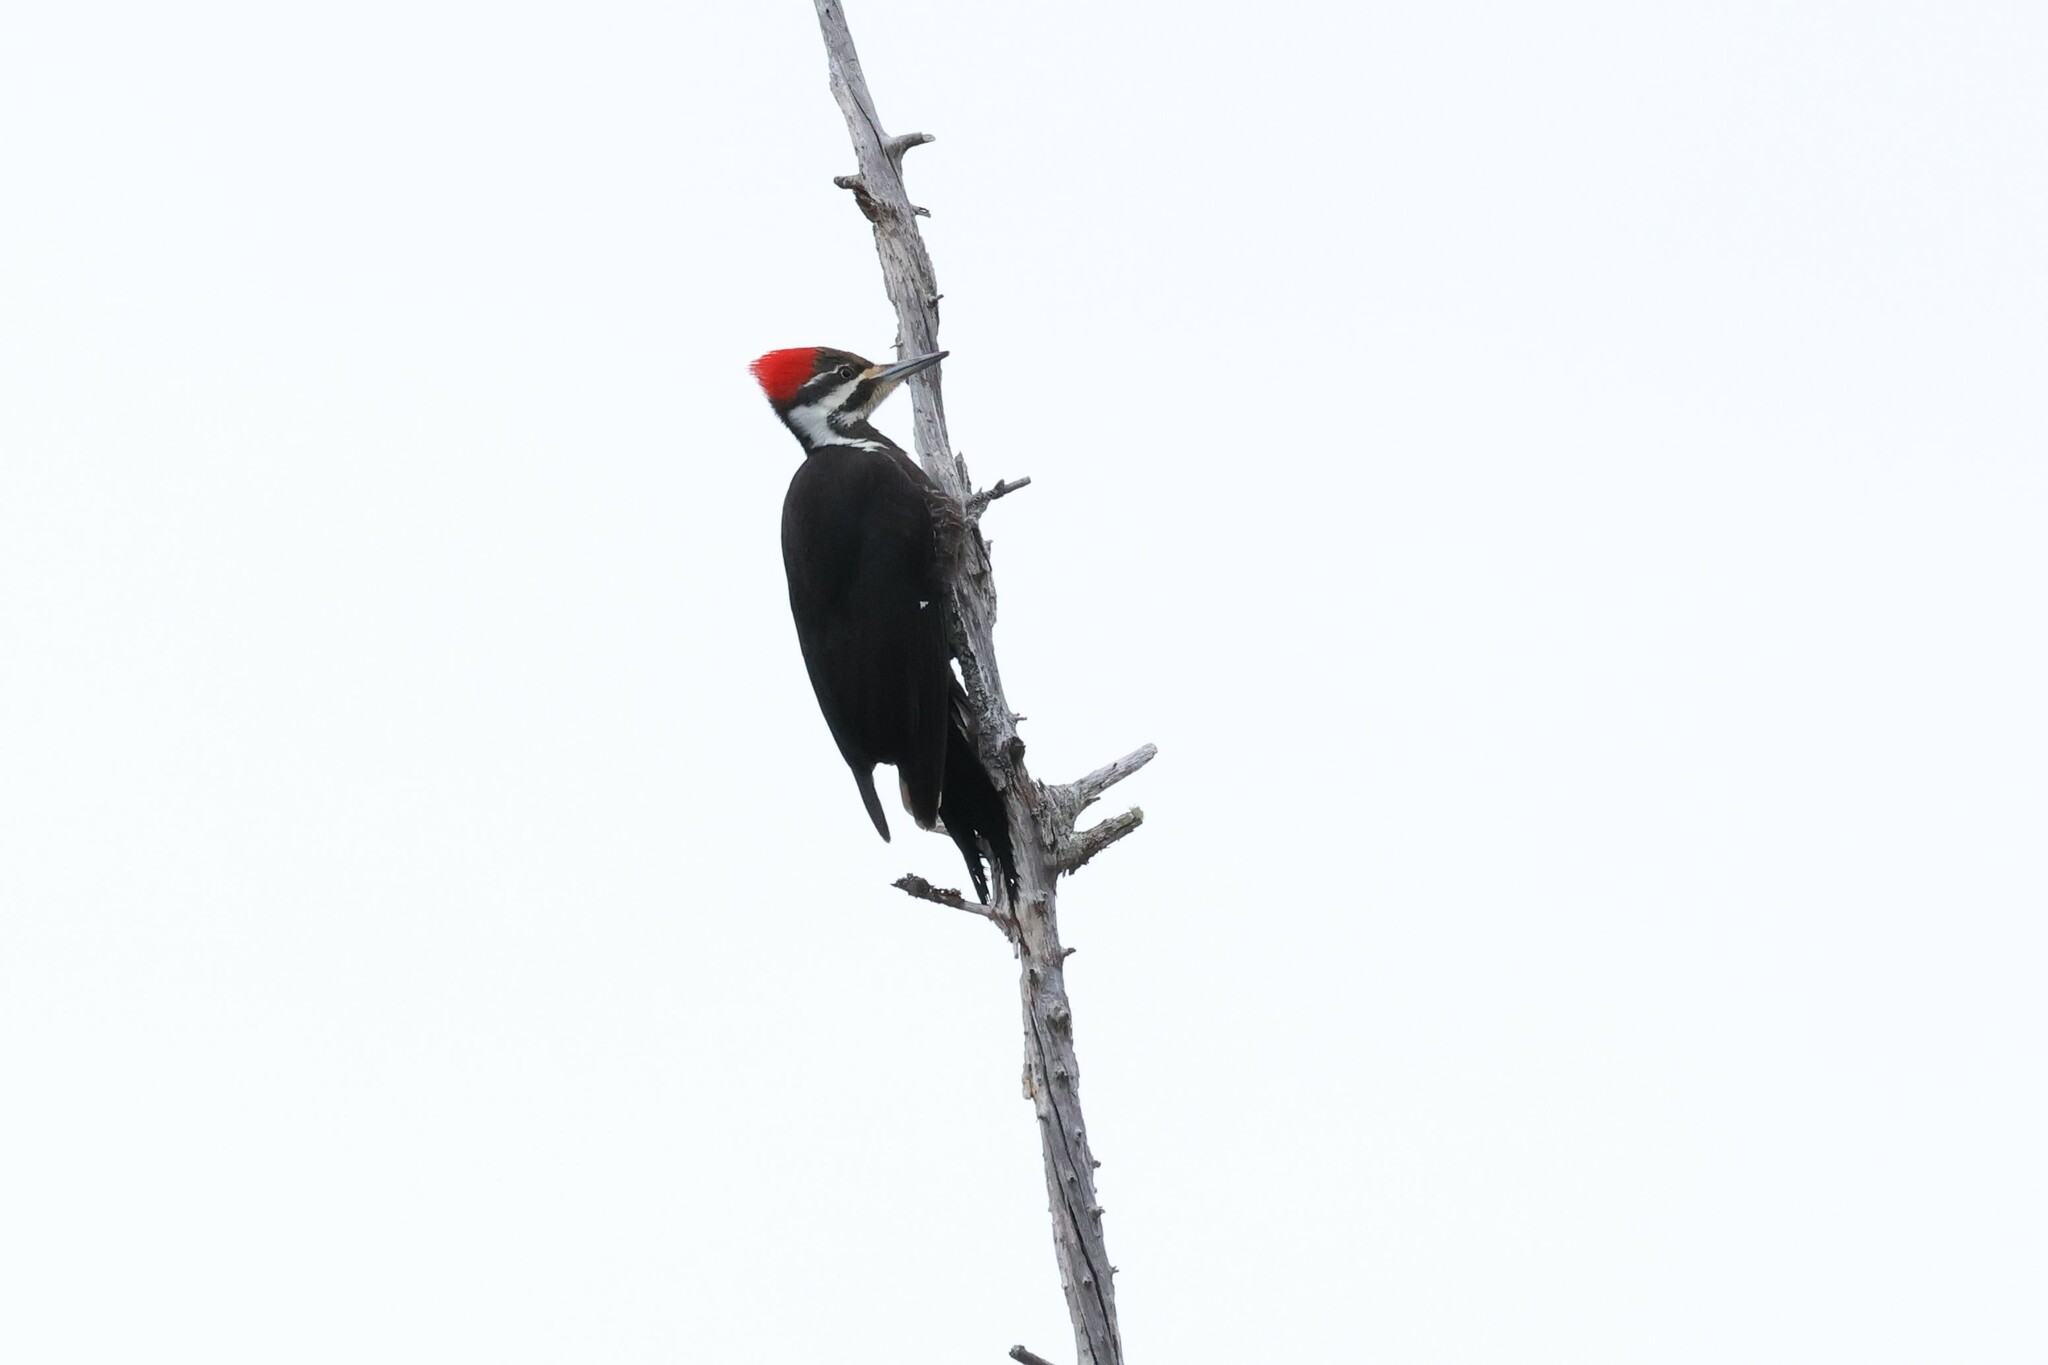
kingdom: Animalia
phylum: Chordata
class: Aves
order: Piciformes
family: Picidae
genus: Dryocopus
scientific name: Dryocopus pileatus
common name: Pileated woodpecker
